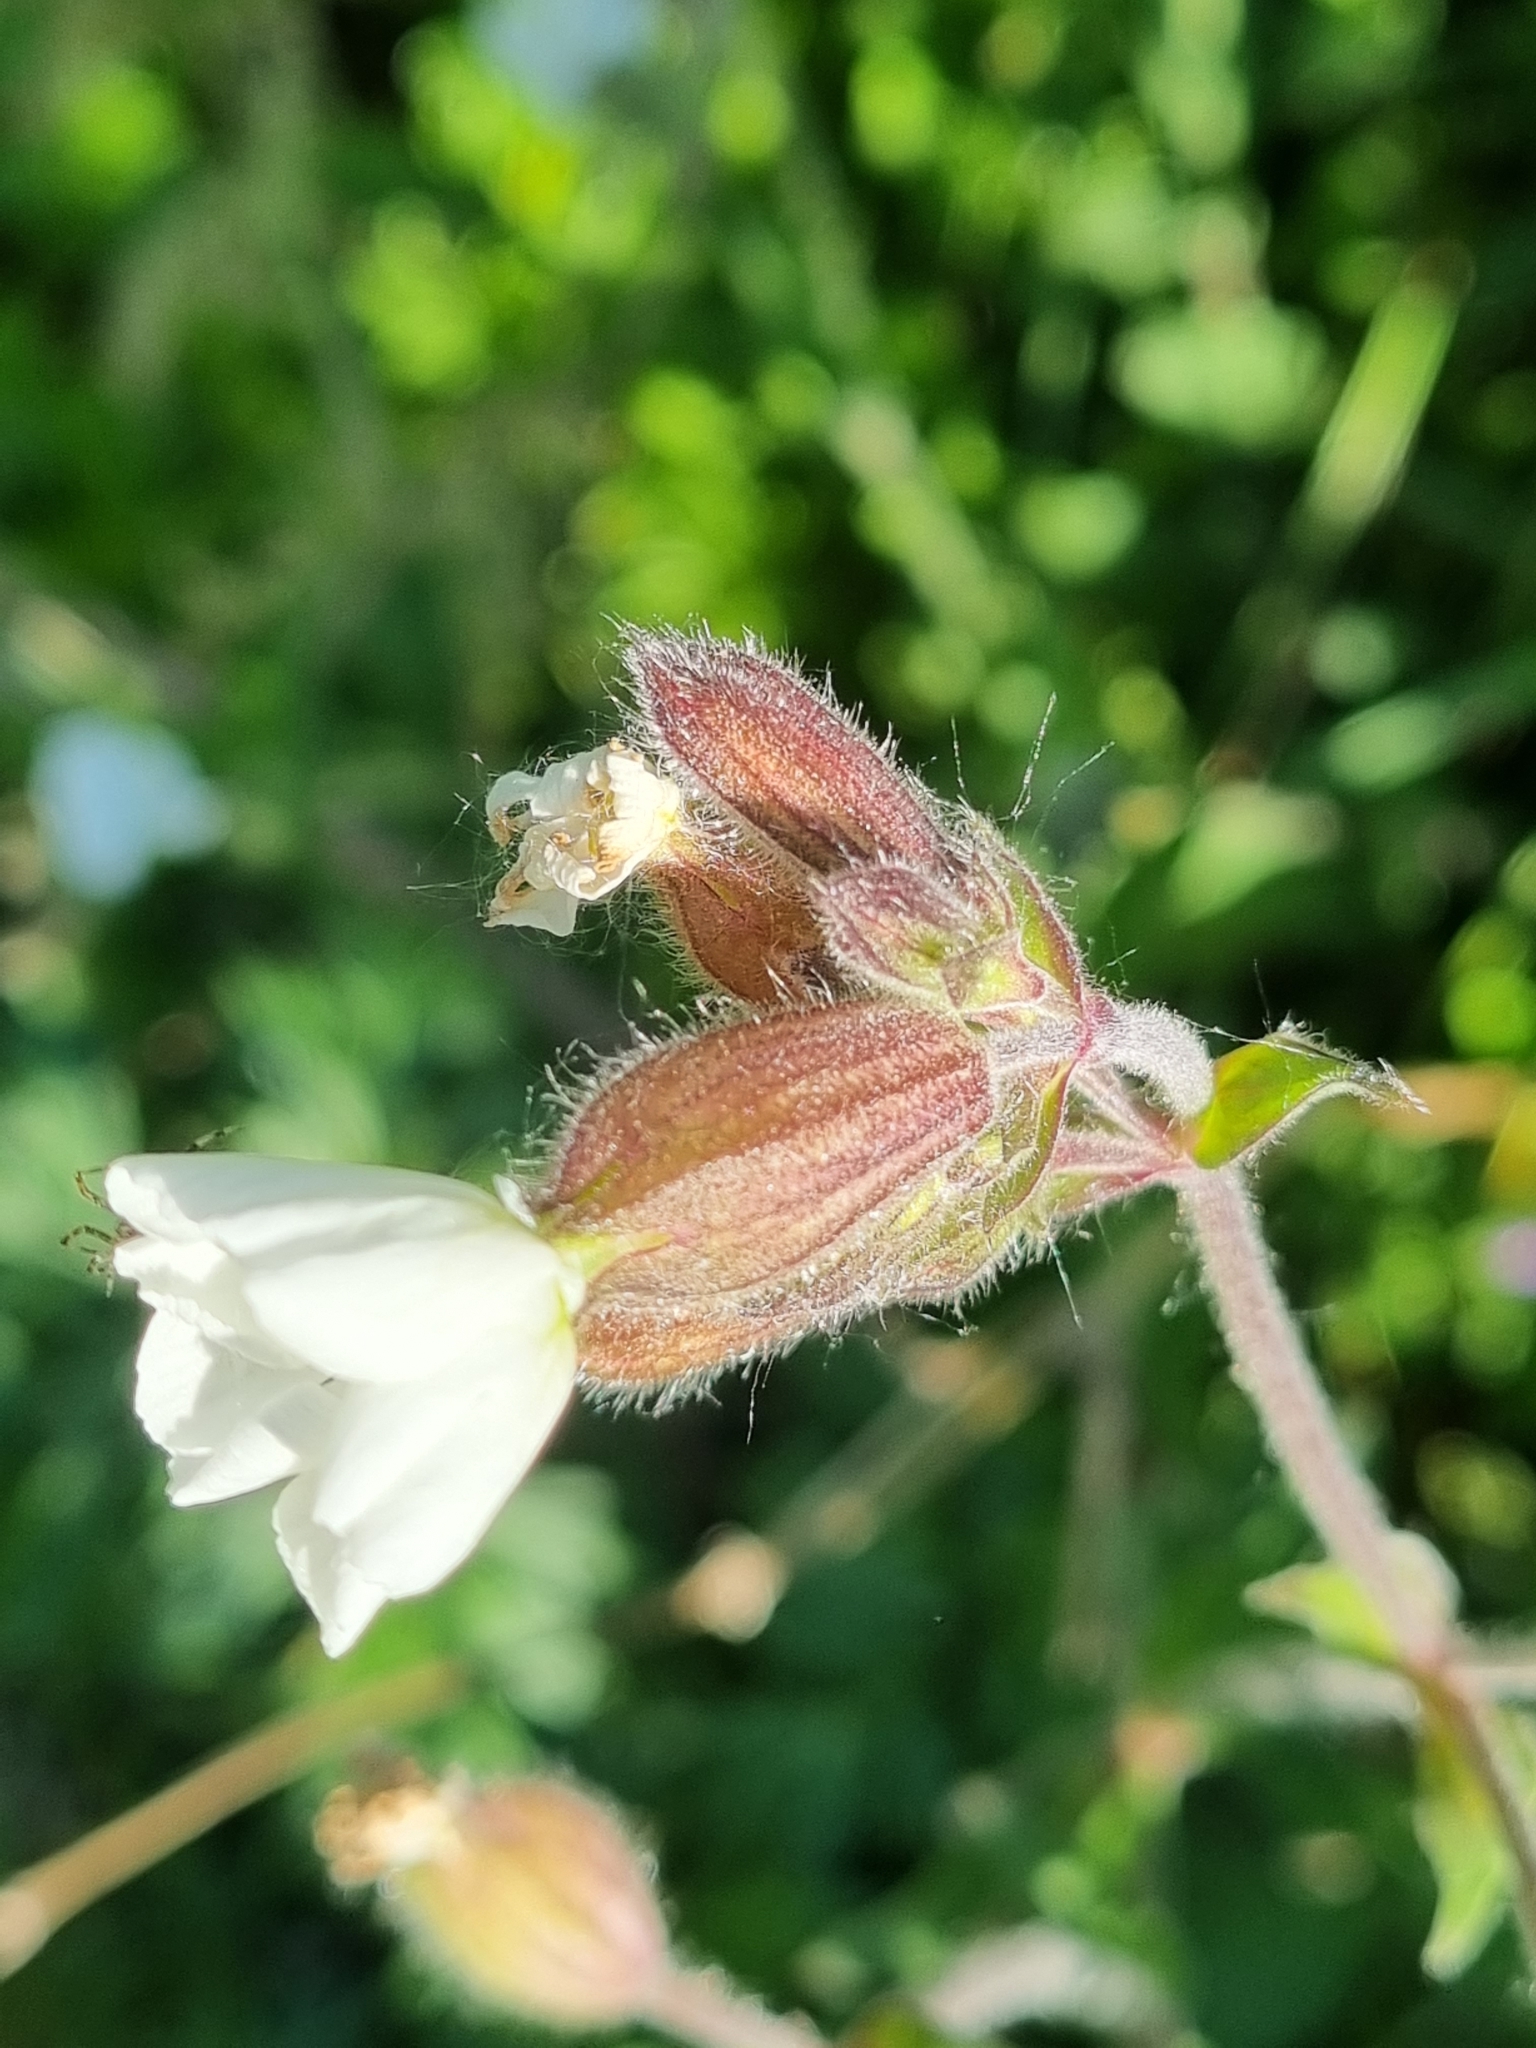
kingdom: Plantae
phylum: Tracheophyta
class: Magnoliopsida
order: Caryophyllales
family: Caryophyllaceae
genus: Silene
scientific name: Silene latifolia
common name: White campion
